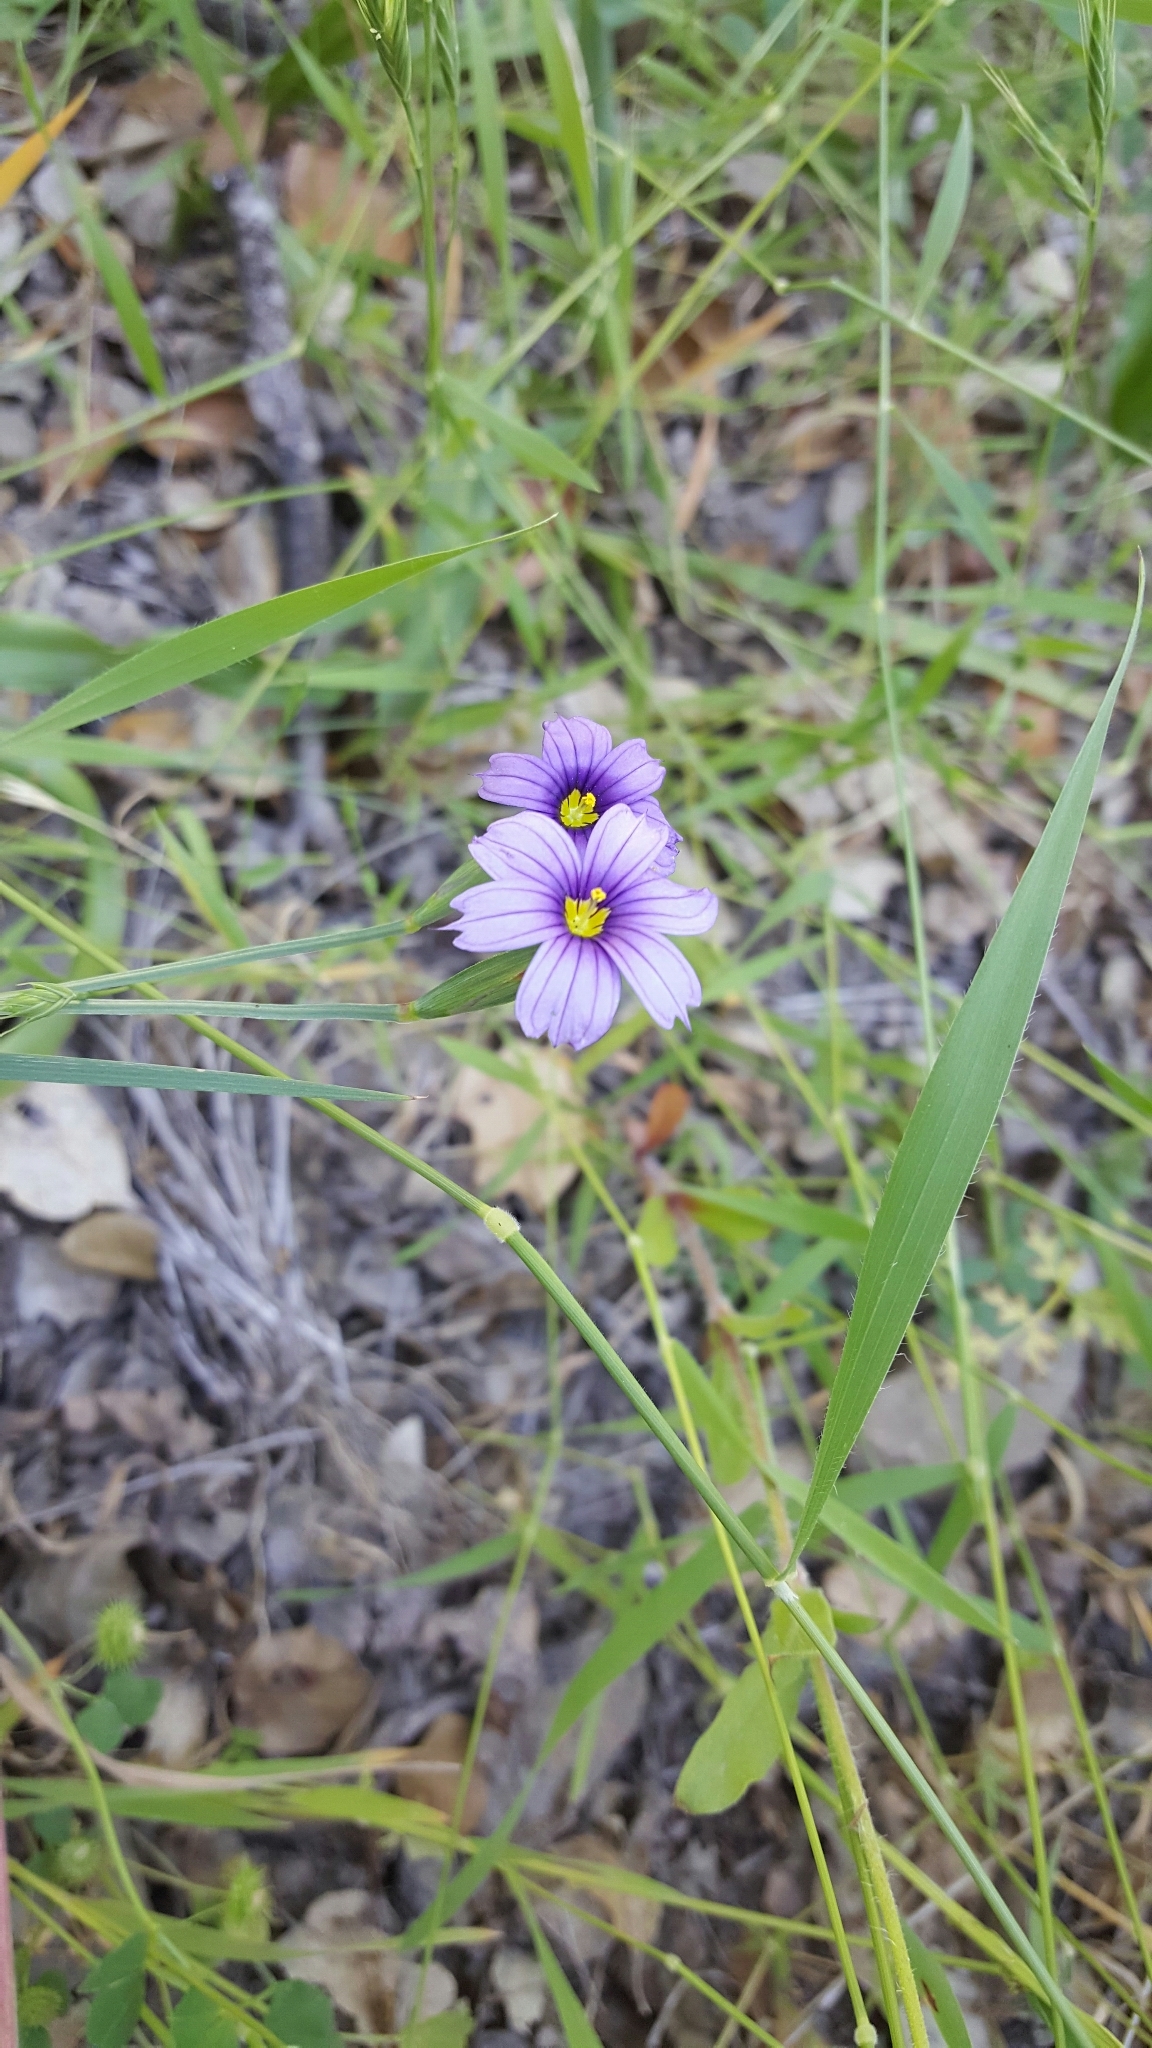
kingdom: Plantae
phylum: Tracheophyta
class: Liliopsida
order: Asparagales
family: Iridaceae
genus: Sisyrinchium
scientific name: Sisyrinchium bellum
